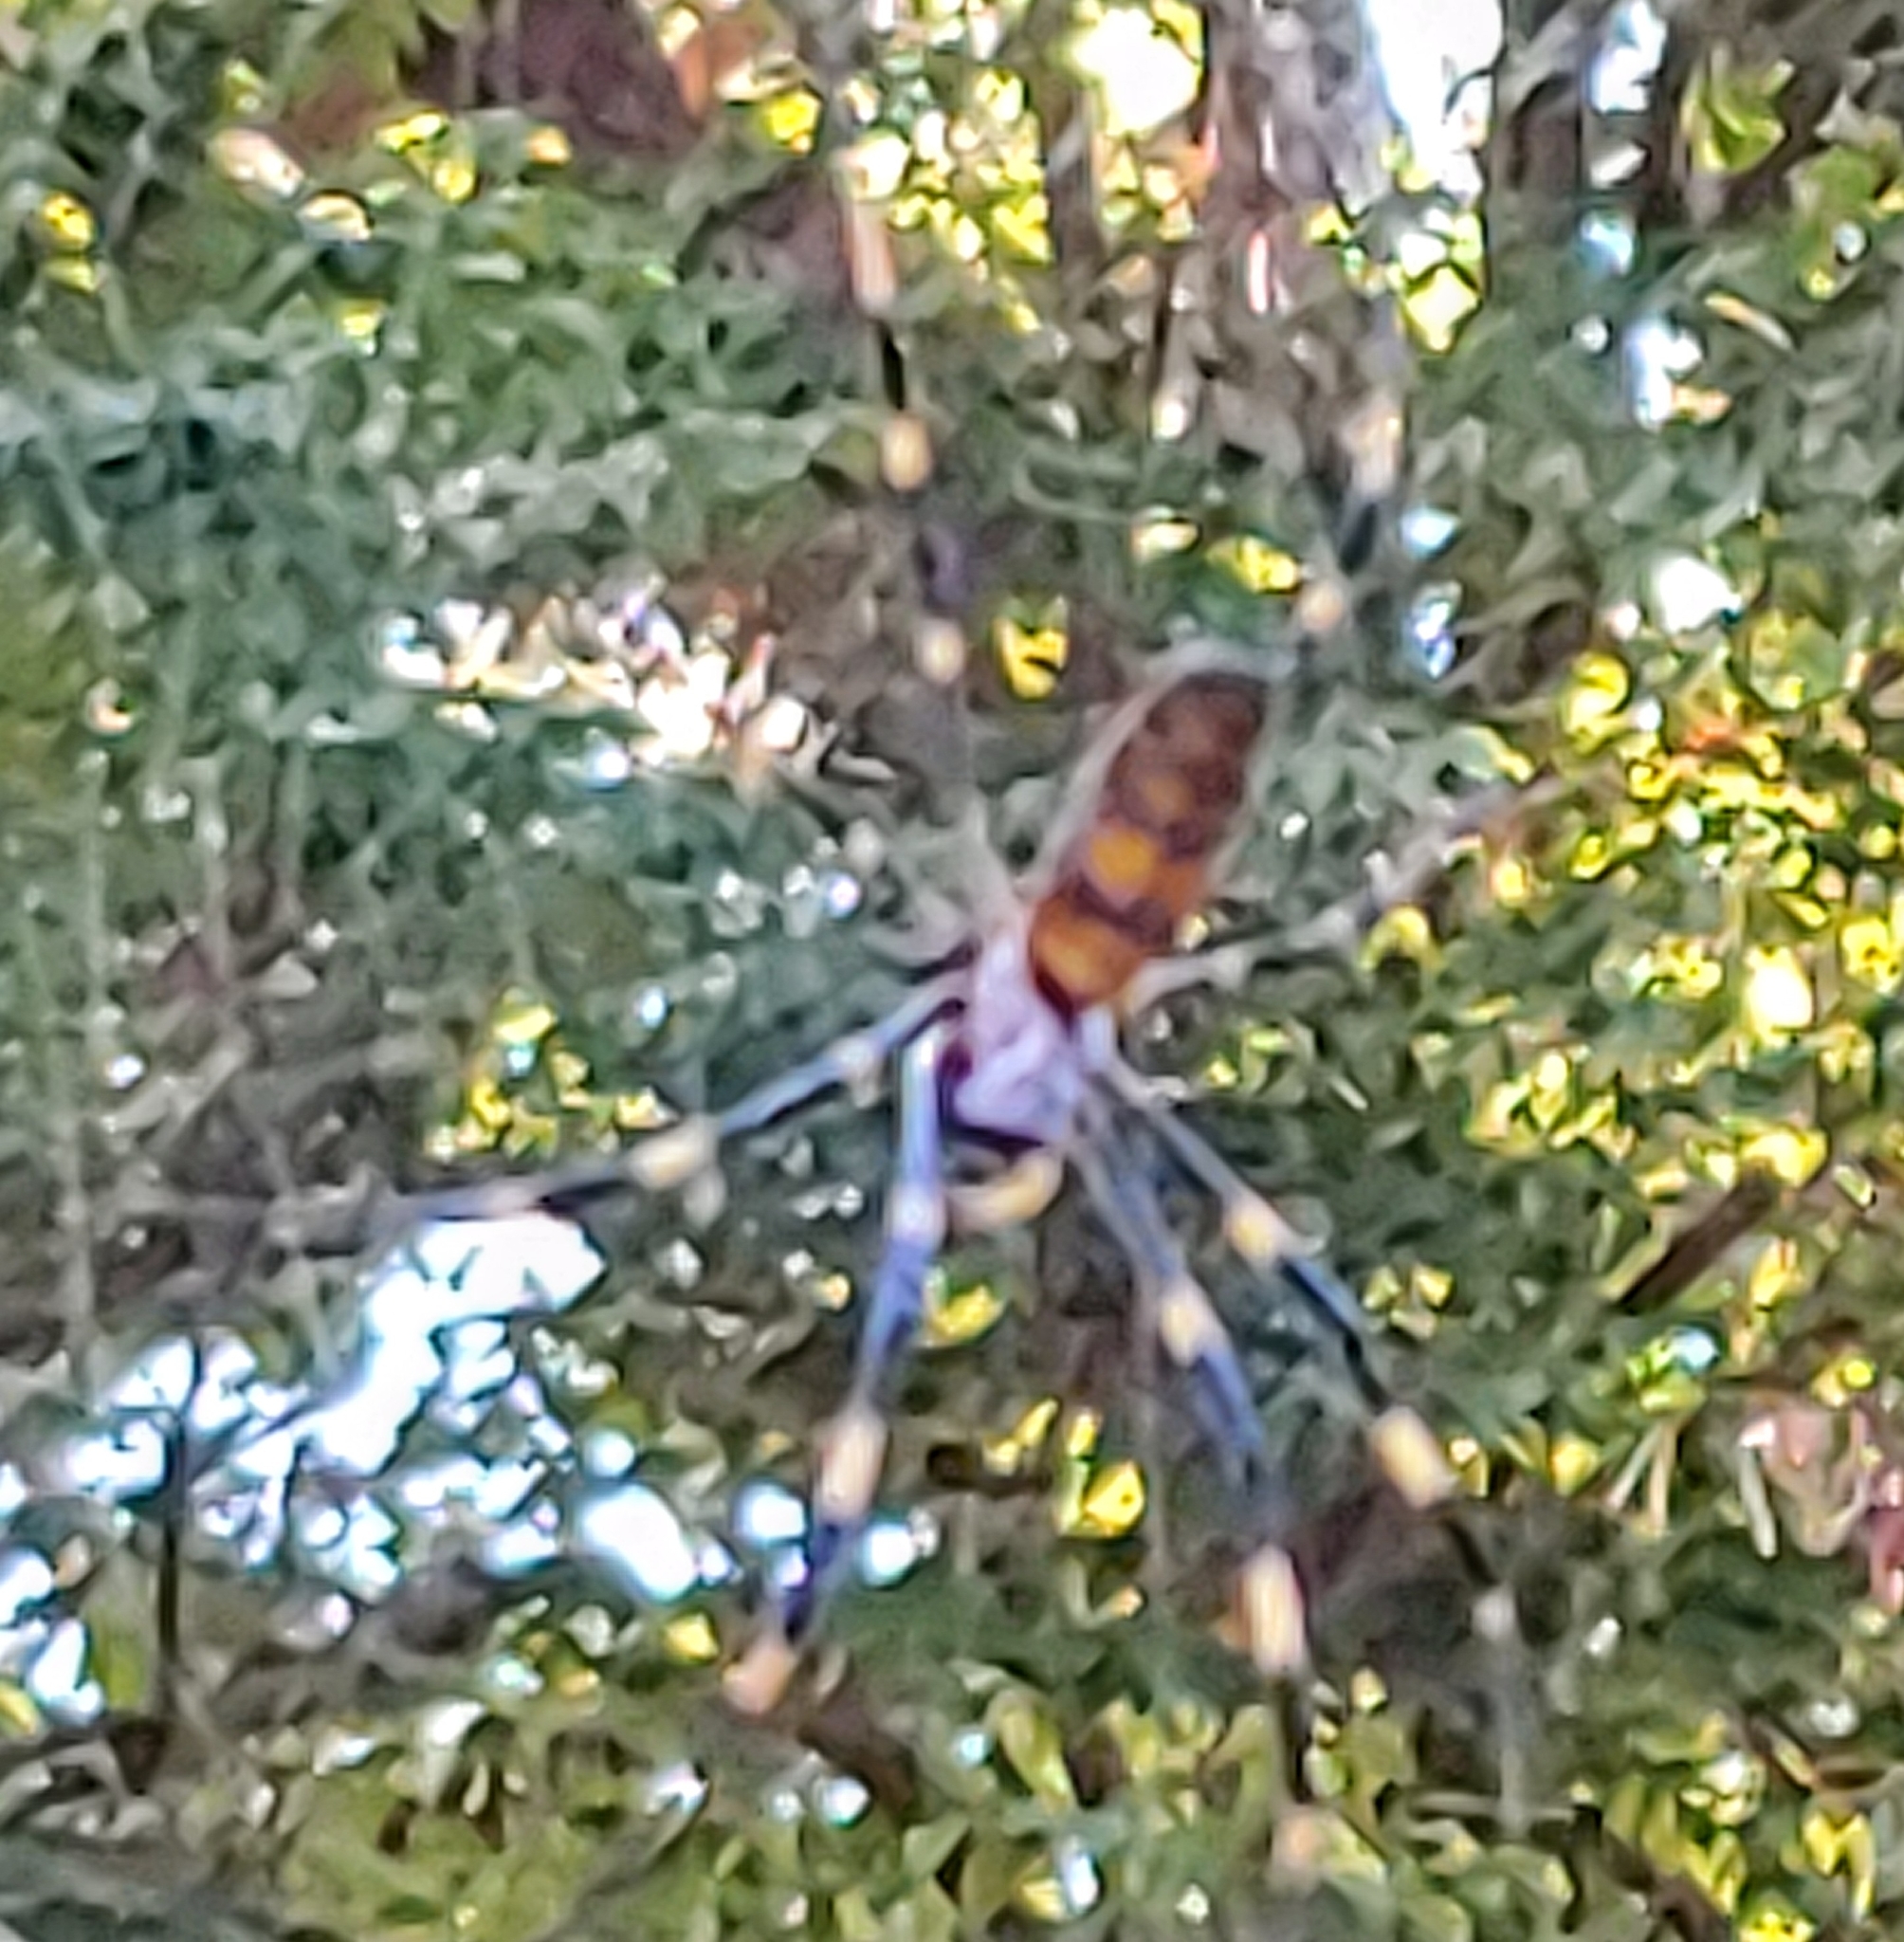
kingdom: Animalia
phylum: Arthropoda
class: Arachnida
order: Araneae
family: Araneidae
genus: Trichonephila
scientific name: Trichonephila clavata
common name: Jorō spider
